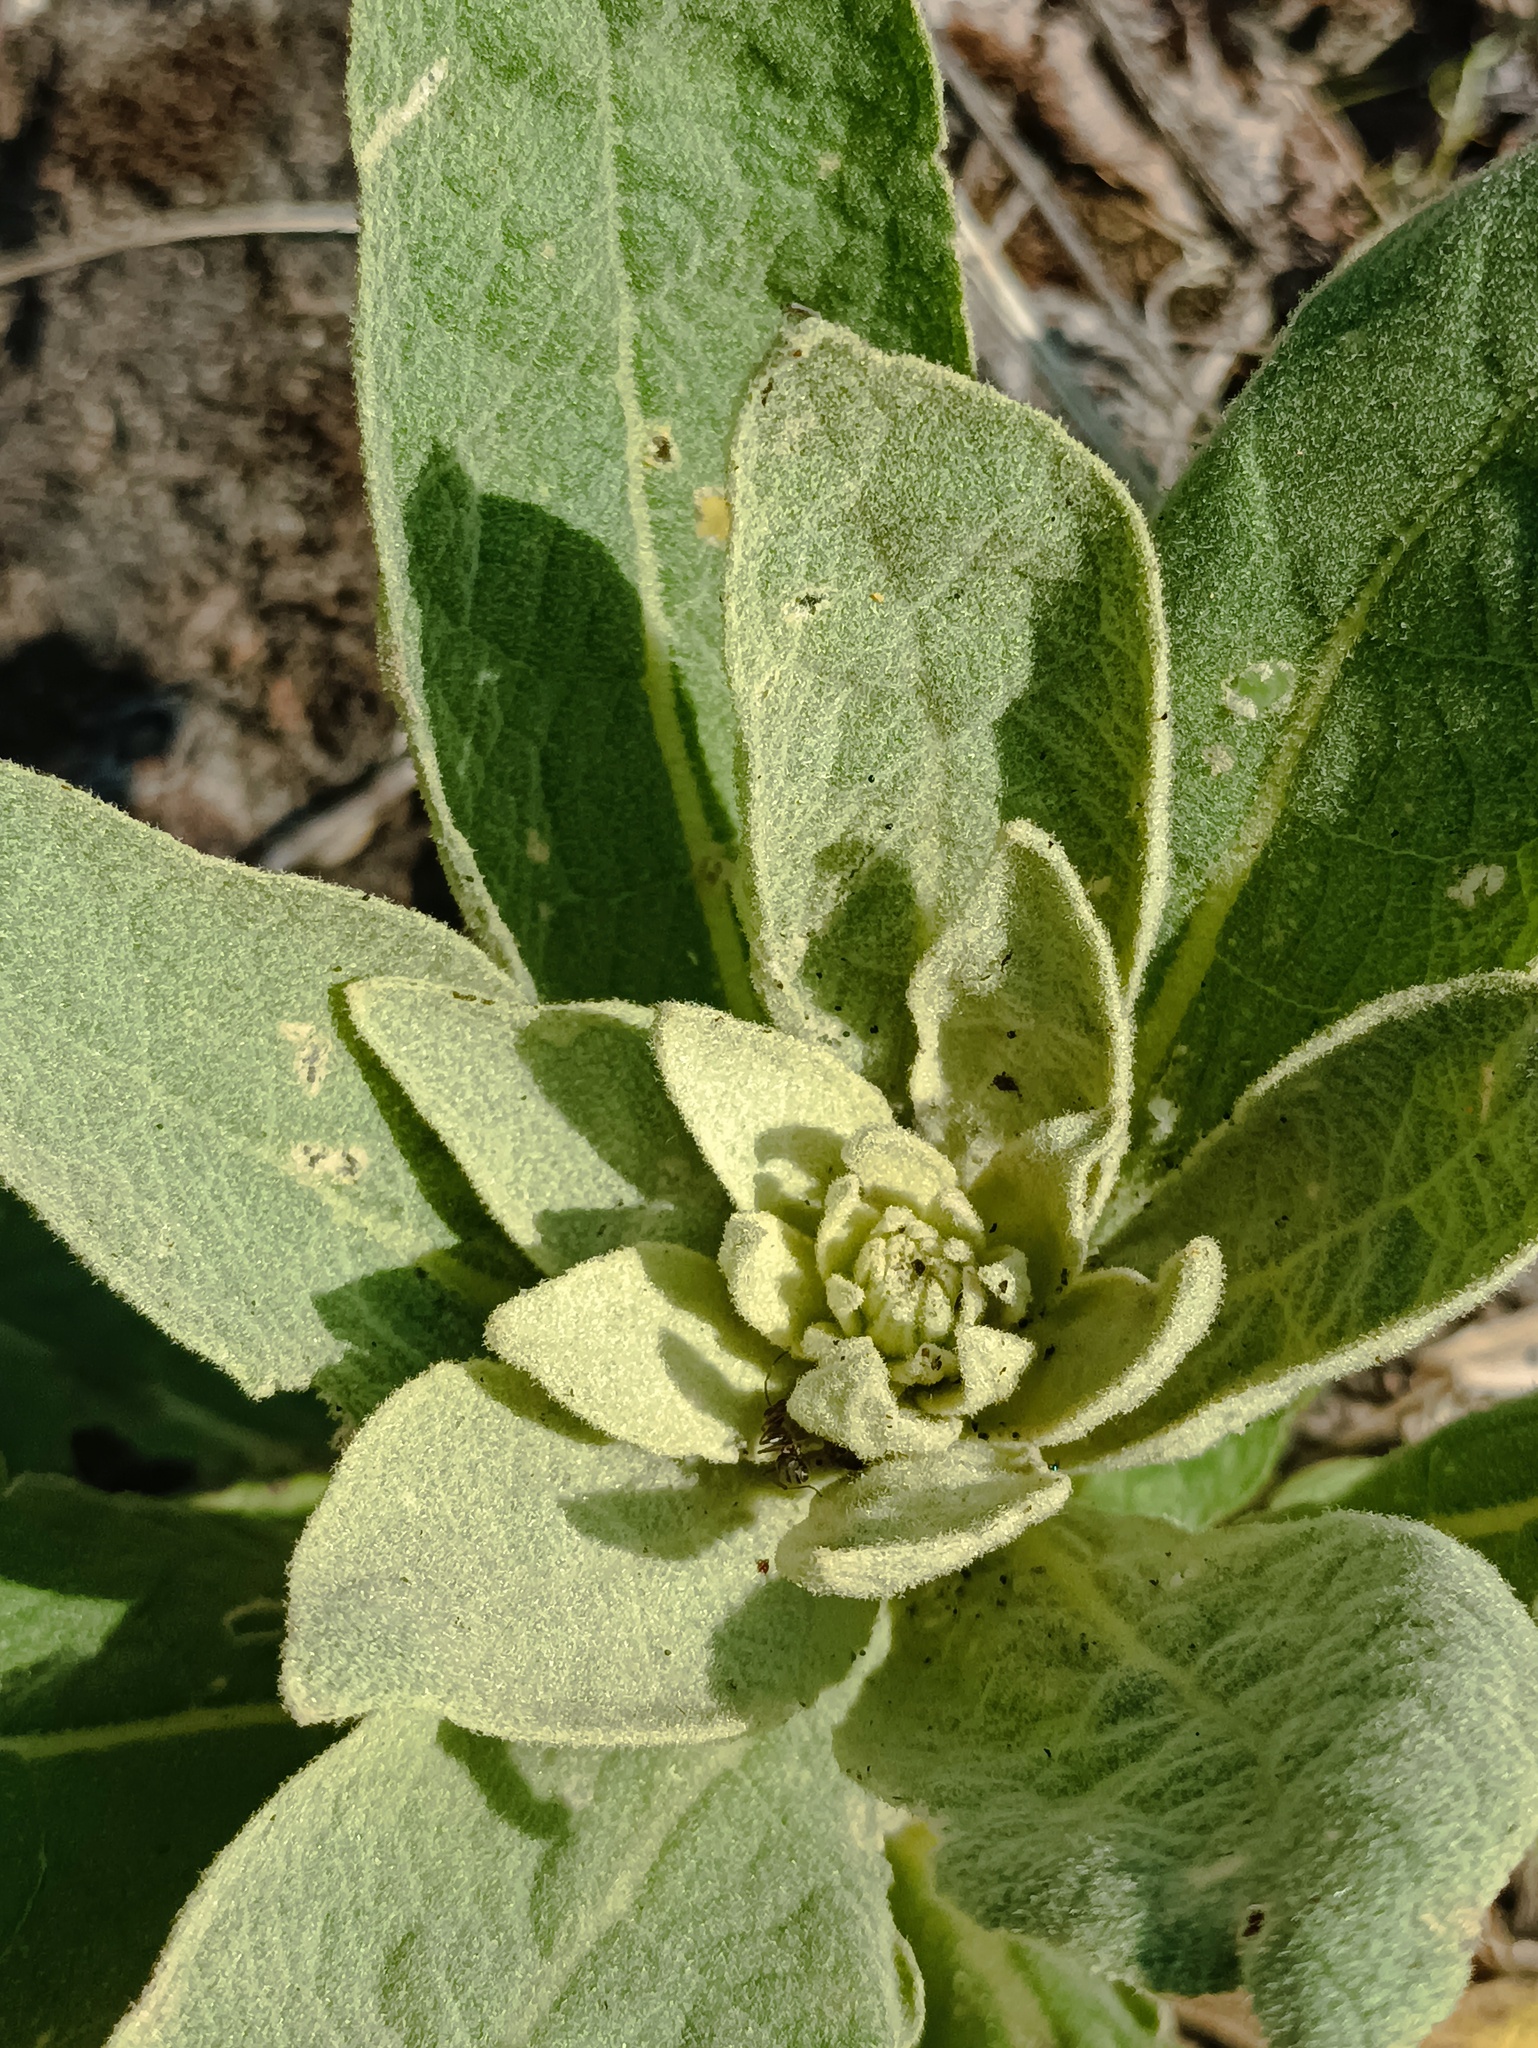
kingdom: Plantae
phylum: Tracheophyta
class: Magnoliopsida
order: Lamiales
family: Scrophulariaceae
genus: Verbascum
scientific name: Verbascum thapsus
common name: Common mullein
